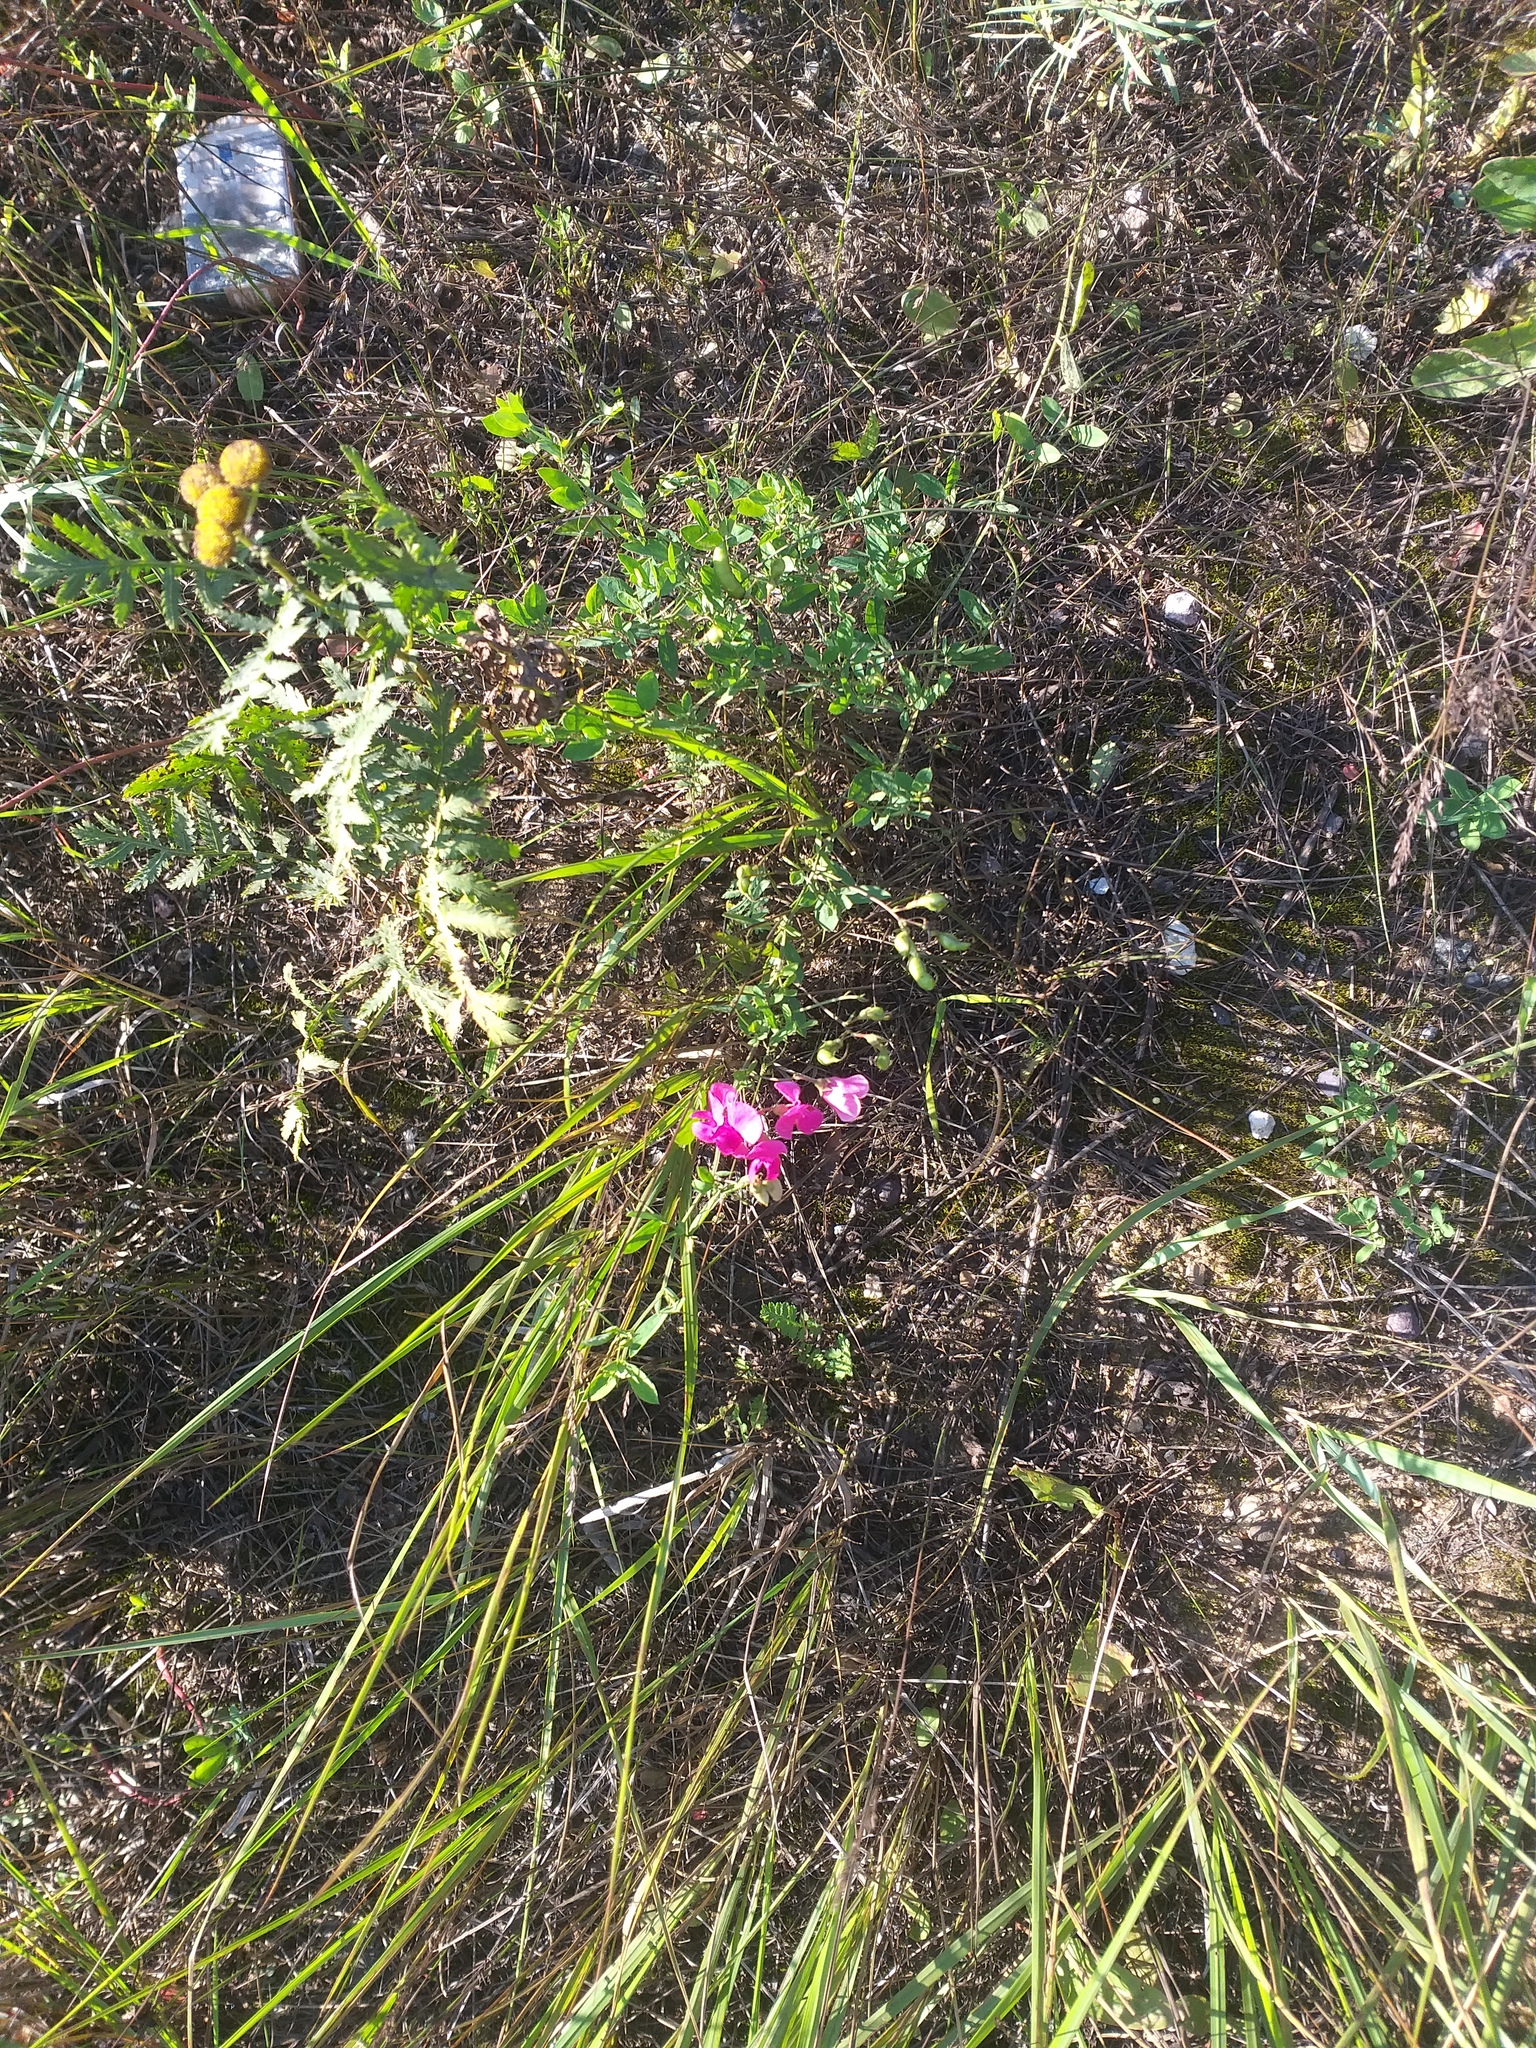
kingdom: Plantae
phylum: Tracheophyta
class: Magnoliopsida
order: Fabales
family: Fabaceae
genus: Lathyrus
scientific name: Lathyrus tuberosus
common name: Tuberous pea
